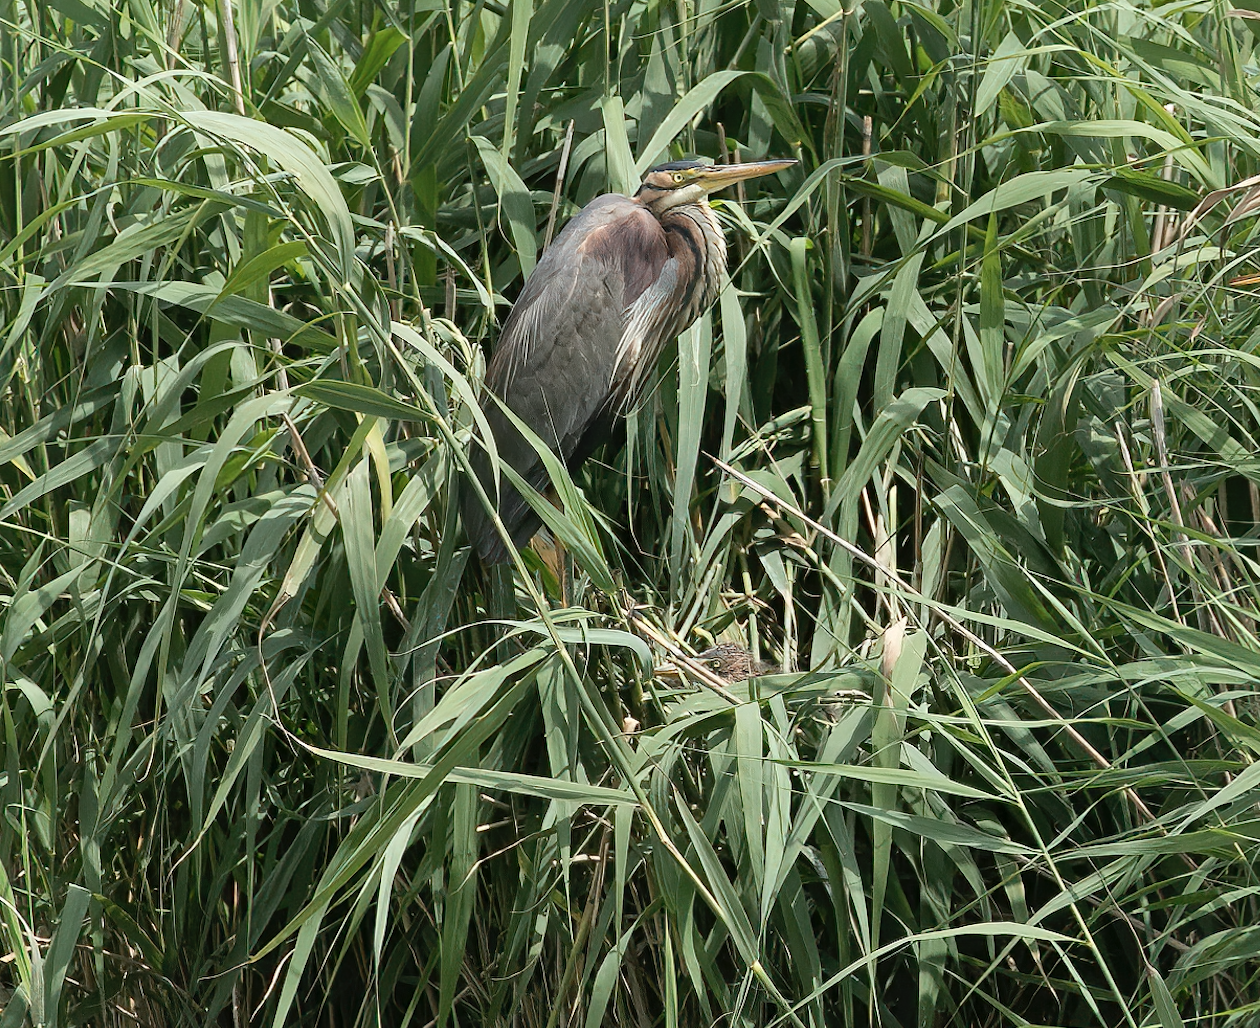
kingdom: Animalia
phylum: Chordata
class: Aves
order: Pelecaniformes
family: Ardeidae
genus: Ardea
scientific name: Ardea purpurea
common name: Purple heron
